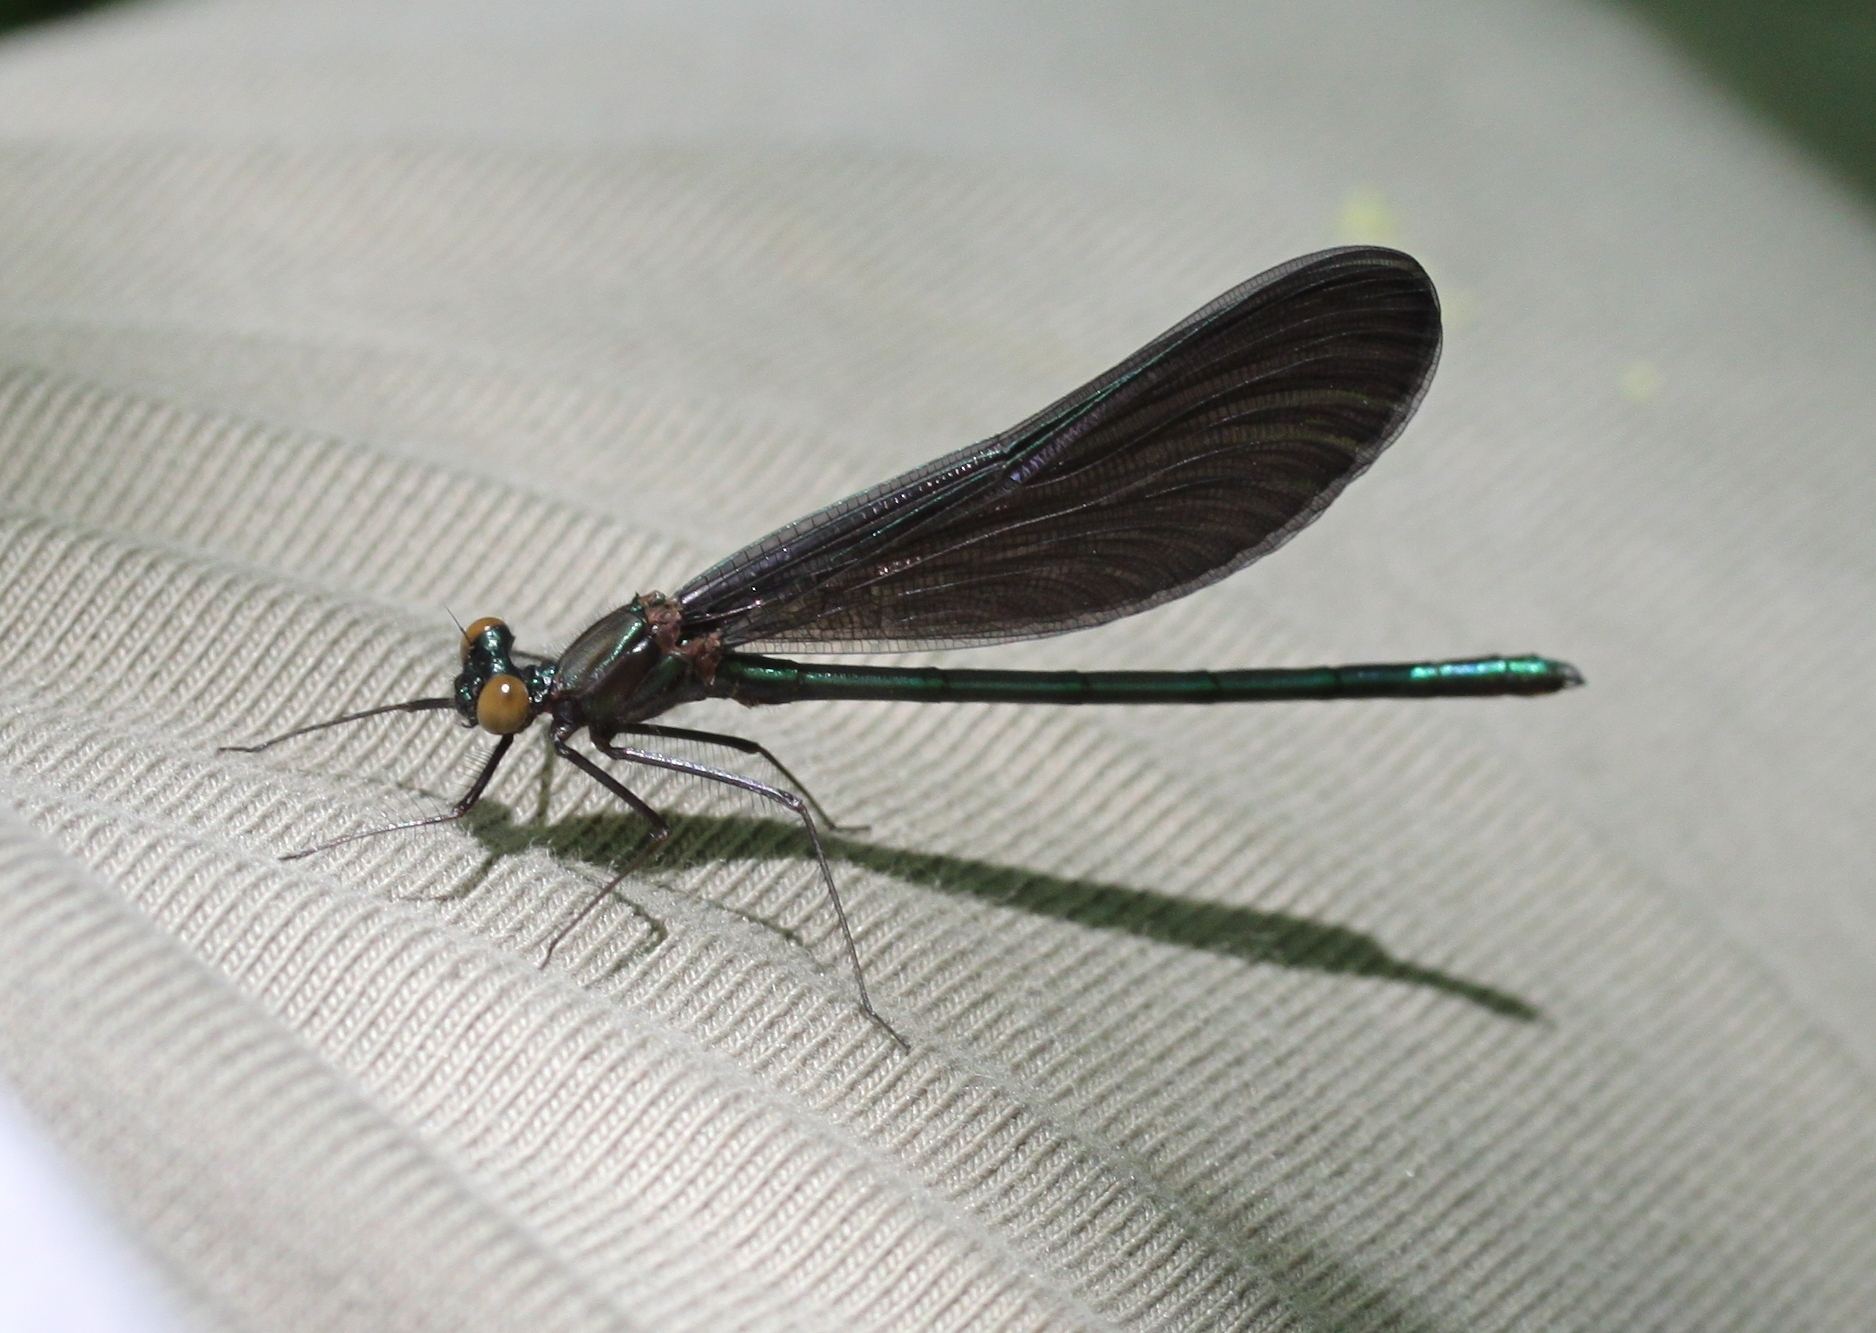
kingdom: Animalia
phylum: Arthropoda
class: Insecta
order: Odonata
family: Calopterygidae
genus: Calopteryx
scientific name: Calopteryx maculata
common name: Ebony jewelwing
